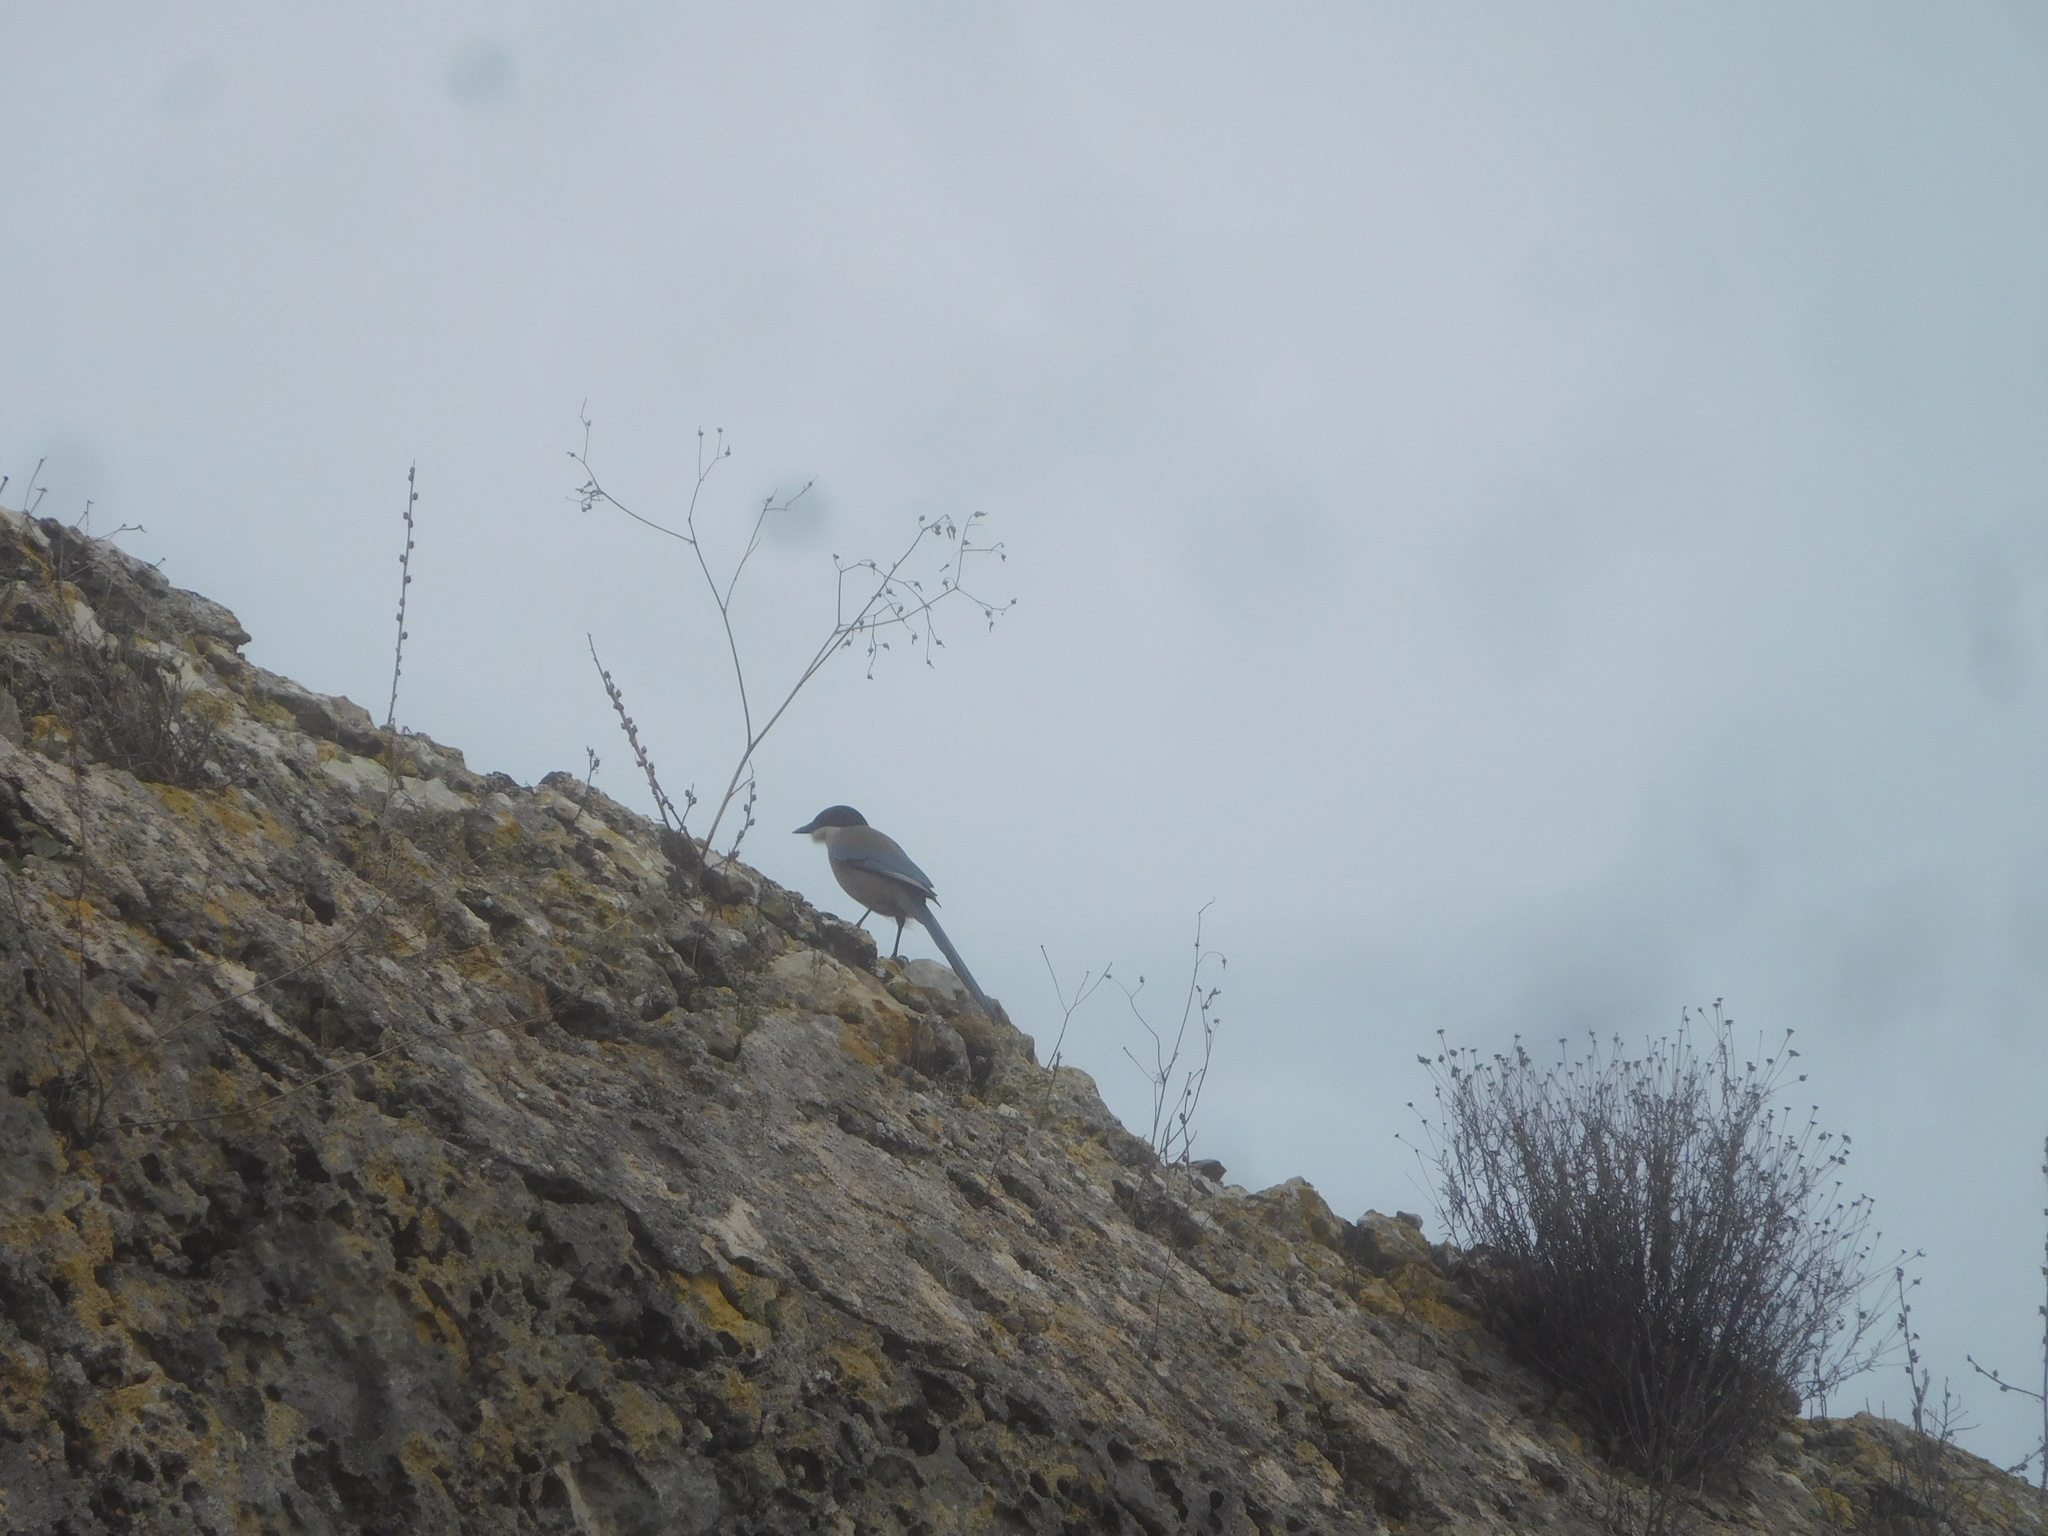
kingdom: Animalia
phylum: Chordata
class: Aves
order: Passeriformes
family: Corvidae
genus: Cyanopica
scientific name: Cyanopica cooki
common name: Iberian magpie
